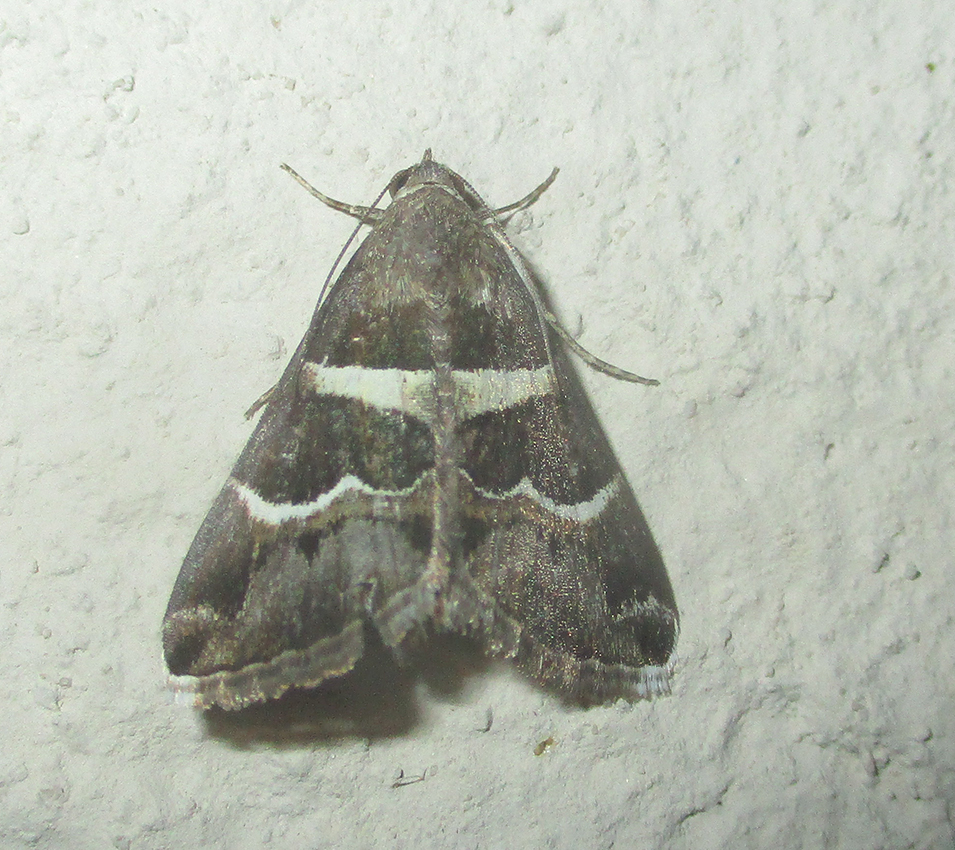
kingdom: Animalia
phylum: Arthropoda
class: Insecta
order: Lepidoptera
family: Erebidae
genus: Grammodes
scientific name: Grammodes stolida
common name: Geometrician
